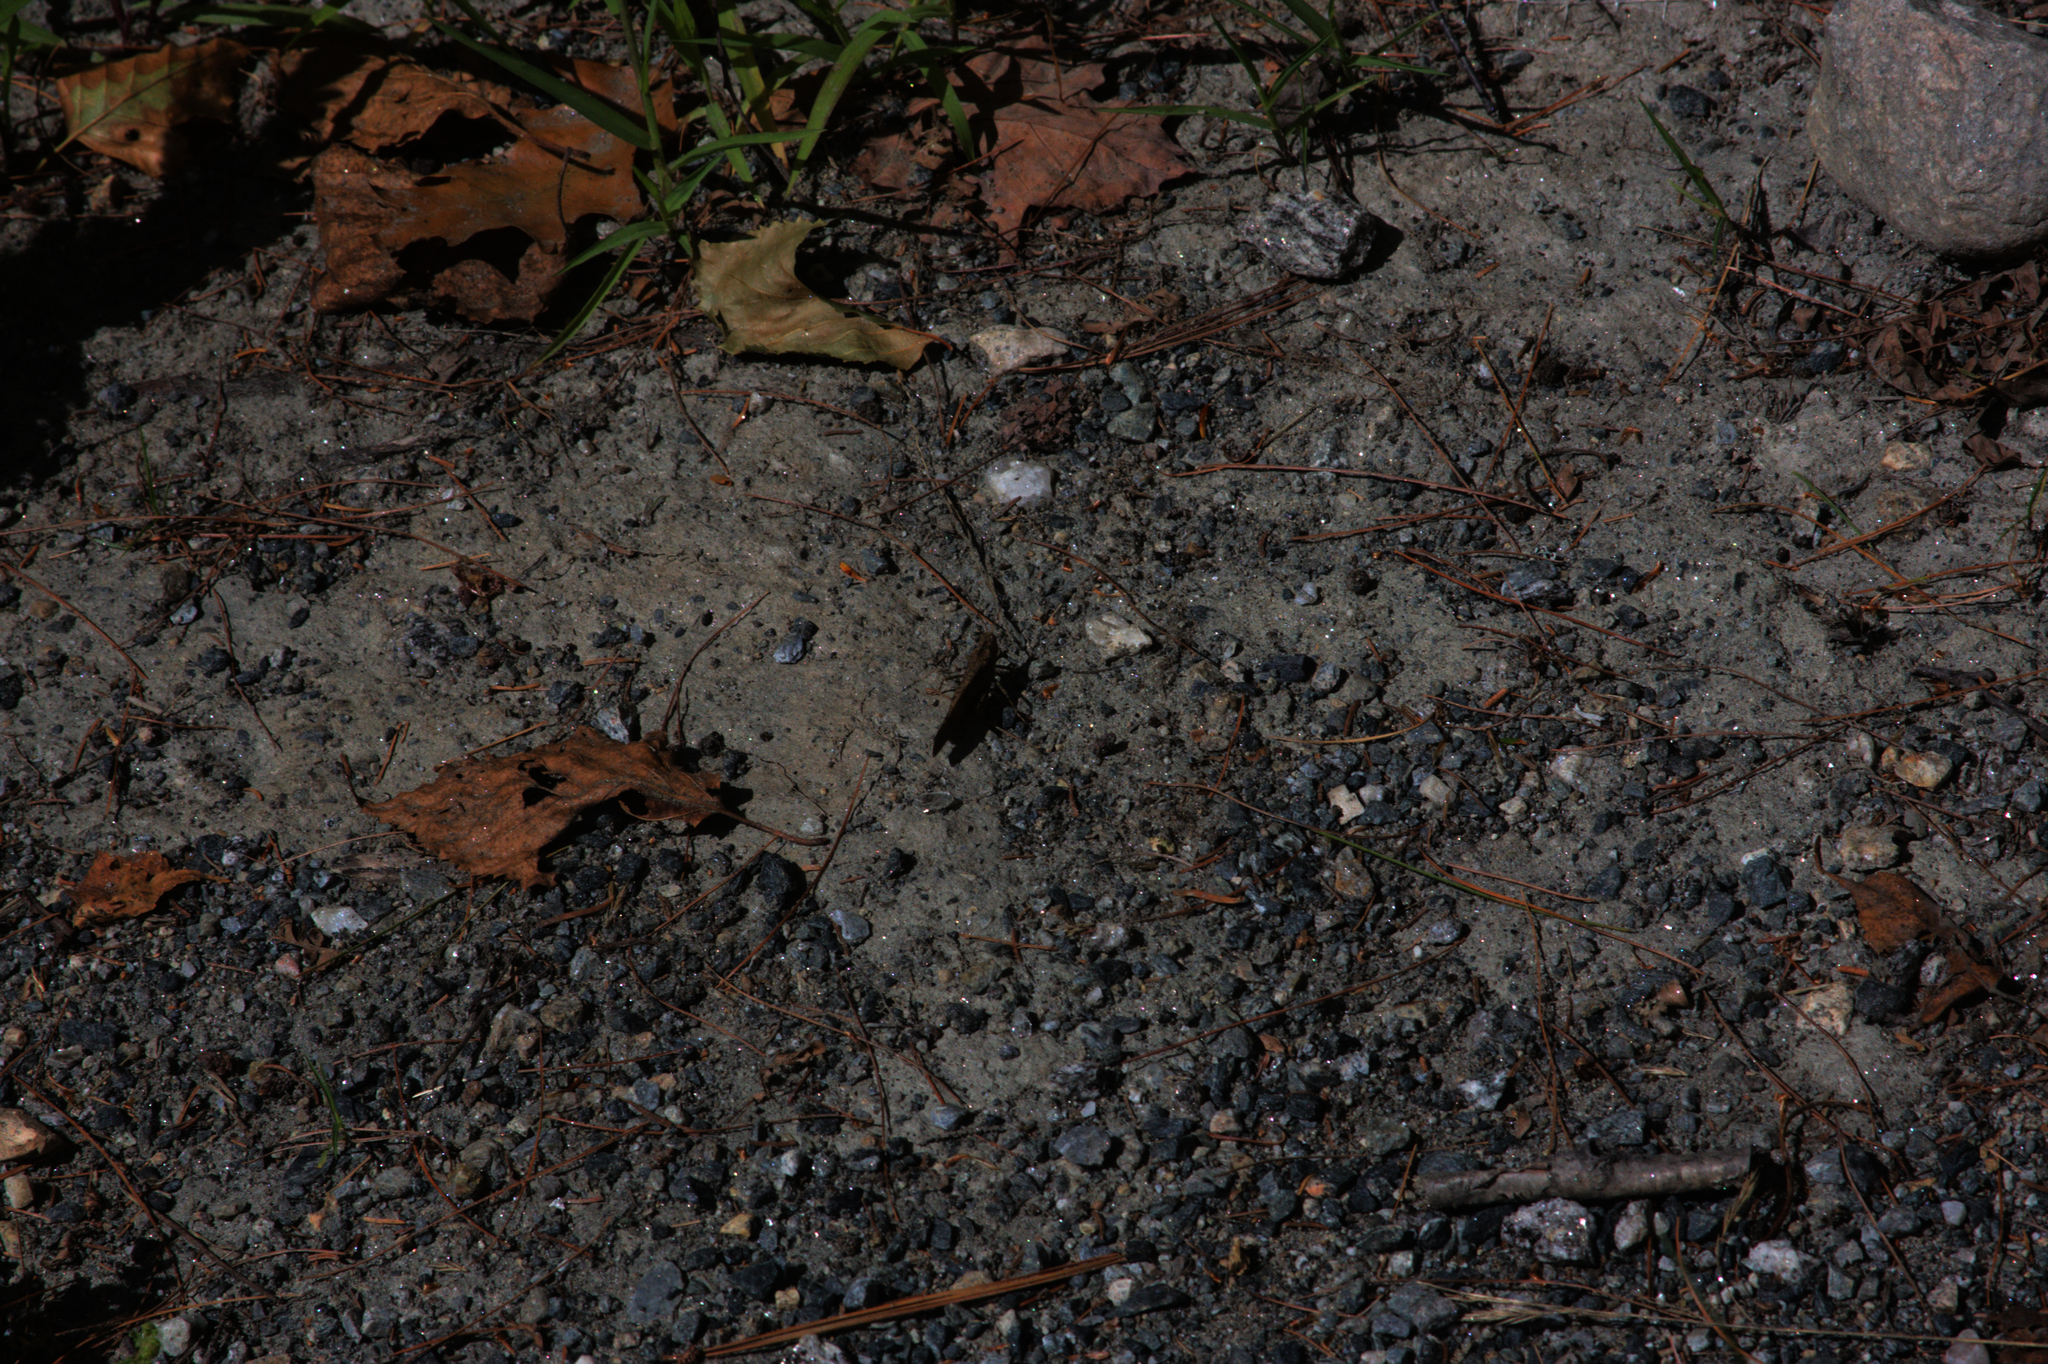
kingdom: Animalia
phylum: Arthropoda
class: Insecta
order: Orthoptera
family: Acrididae
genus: Dissosteira
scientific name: Dissosteira carolina
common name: Carolina grasshopper
